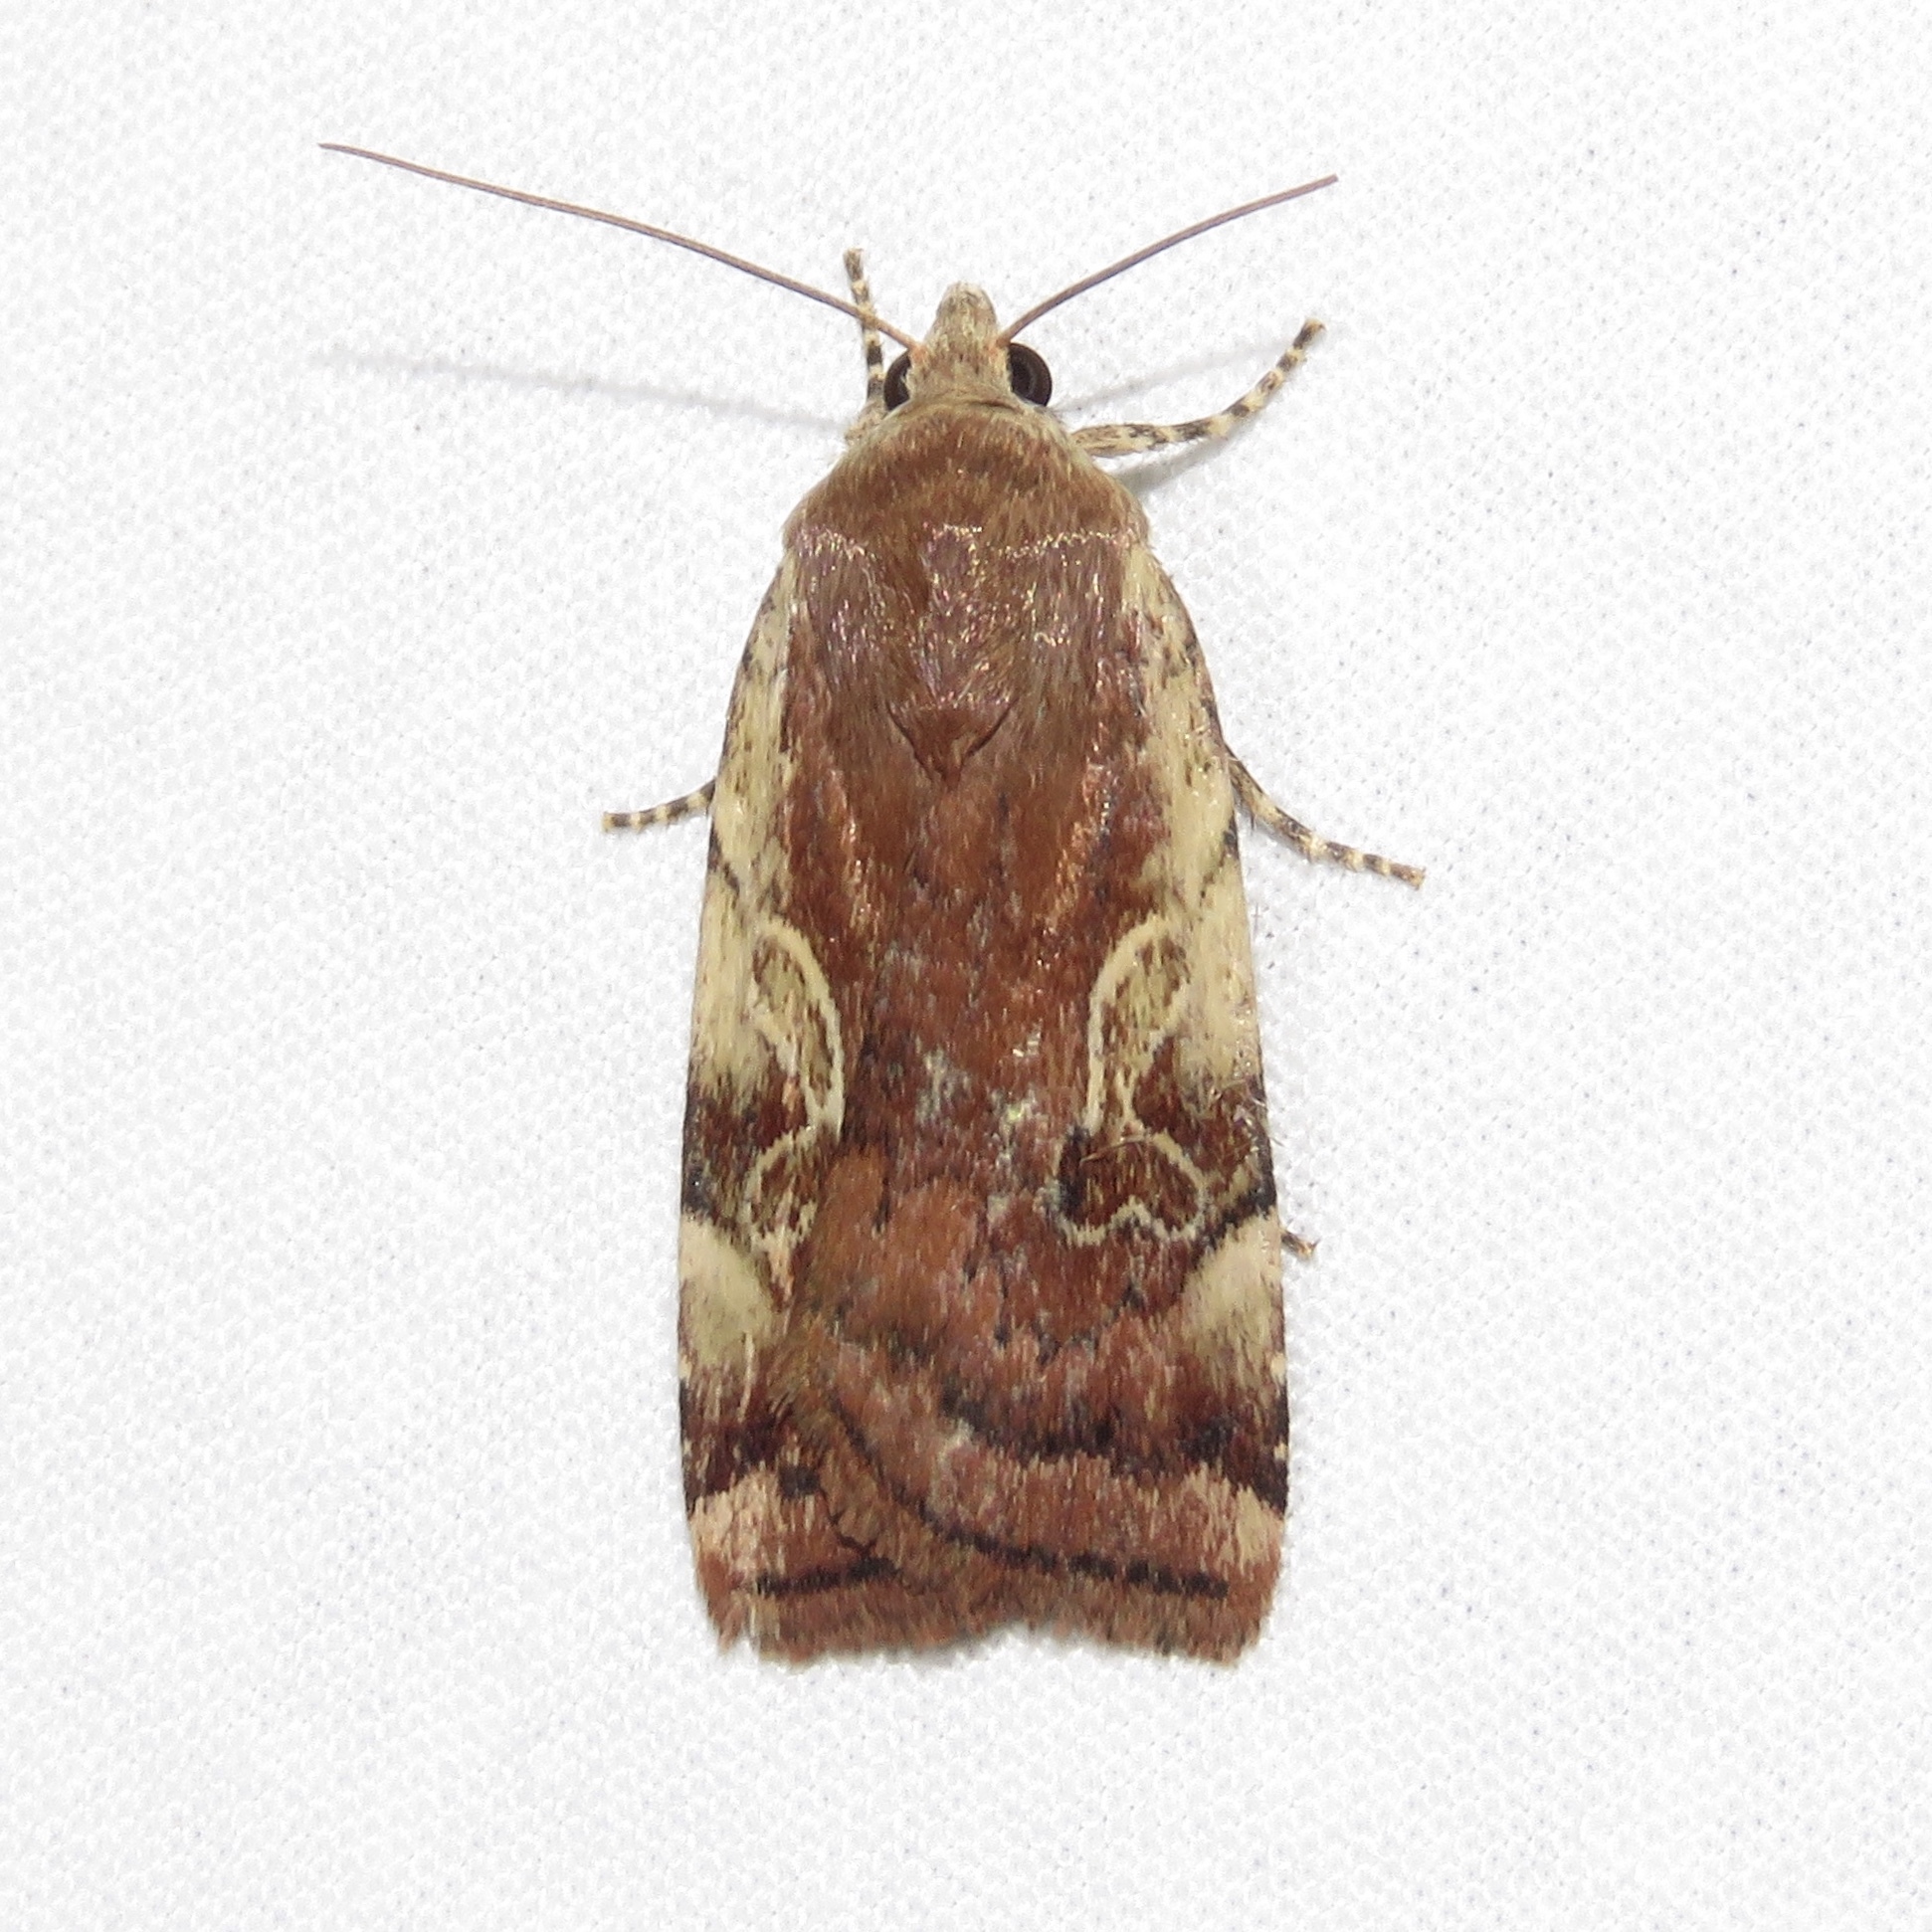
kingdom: Animalia
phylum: Arthropoda
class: Insecta
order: Lepidoptera
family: Noctuidae
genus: Cryptocala
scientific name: Cryptocala acadiensis
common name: Catocaline dart
